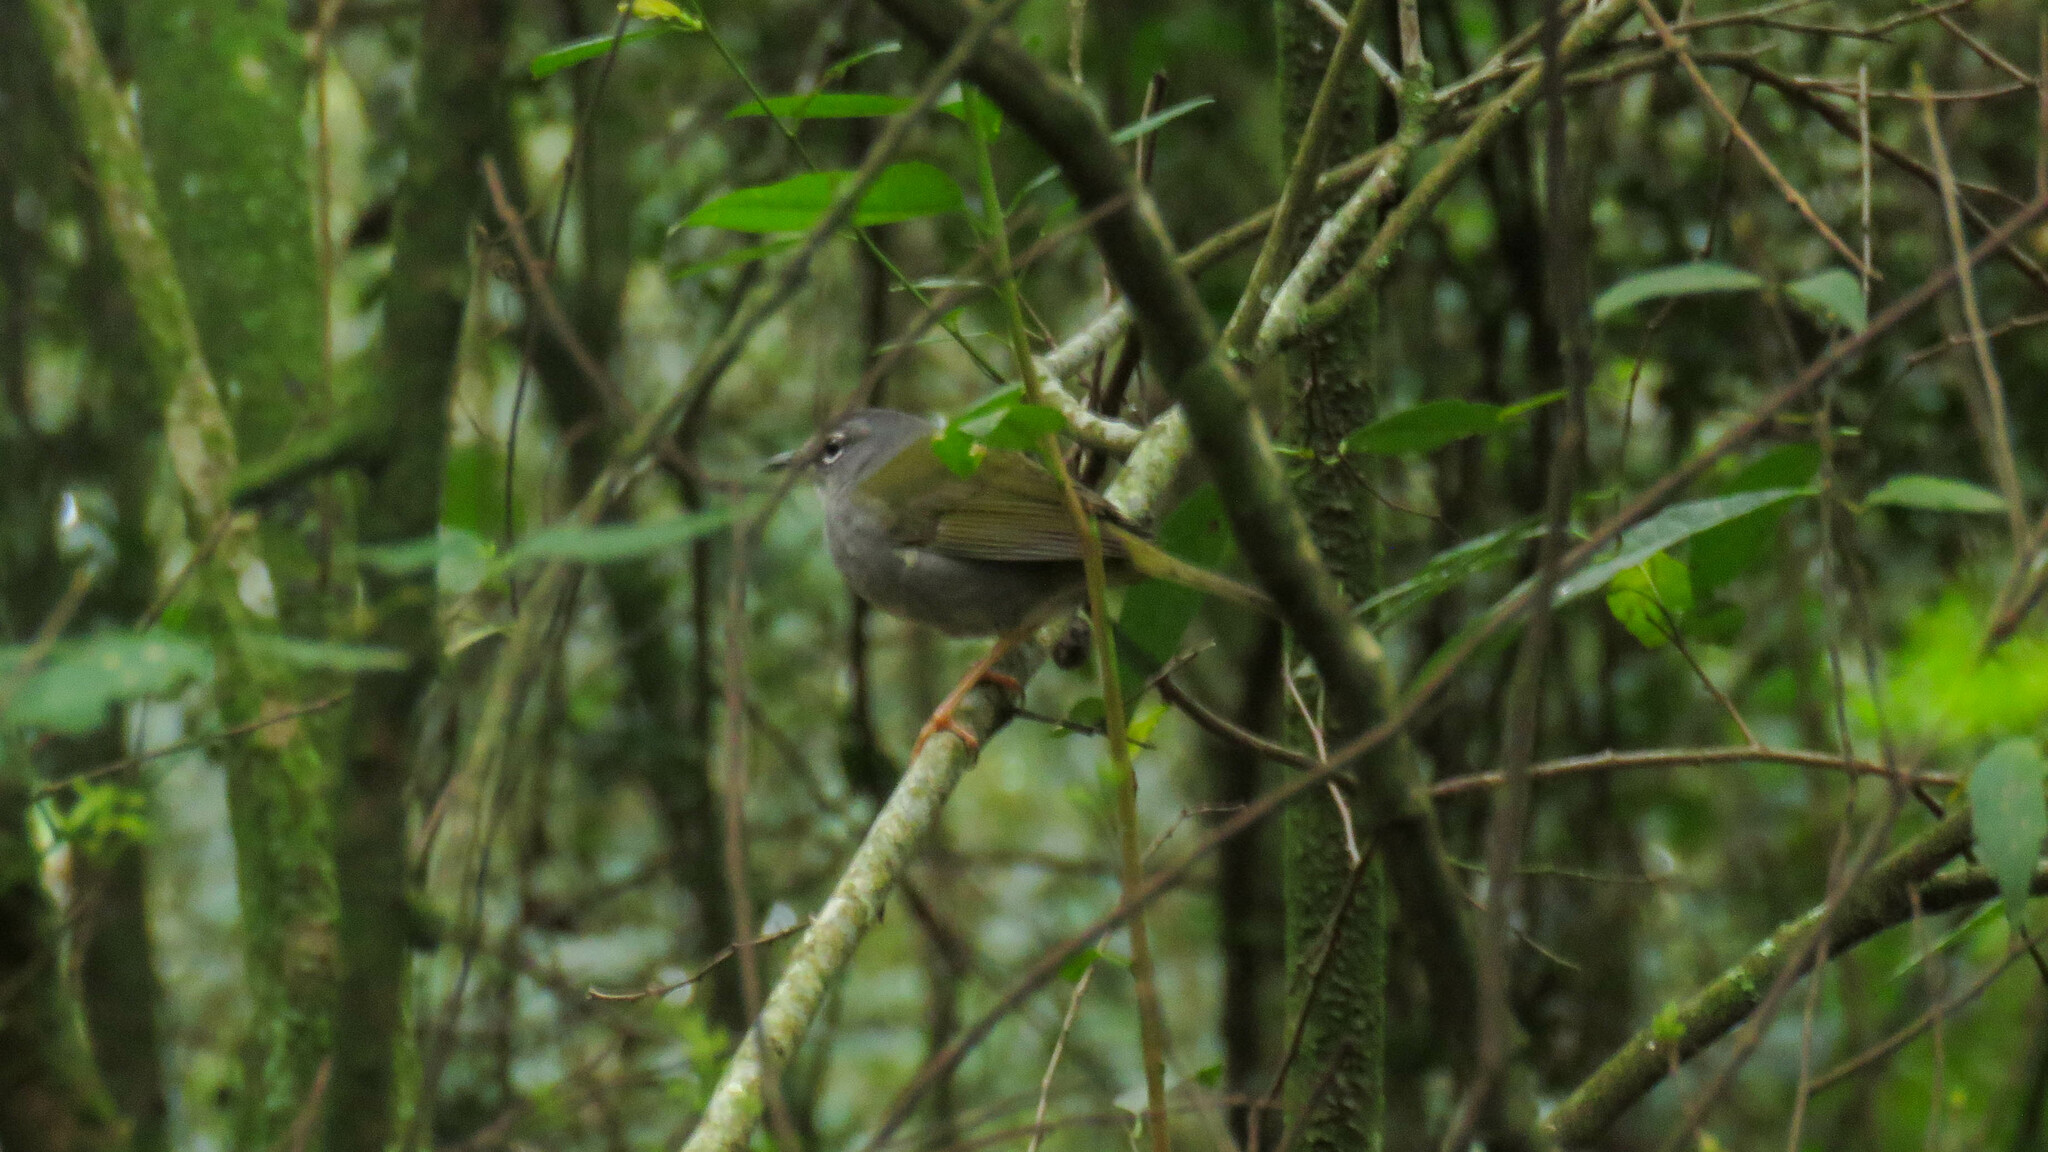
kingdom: Animalia
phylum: Chordata
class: Aves
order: Passeriformes
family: Parulidae
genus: Myiothlypis
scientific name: Myiothlypis leucoblephara
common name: White-rimmed warbler
